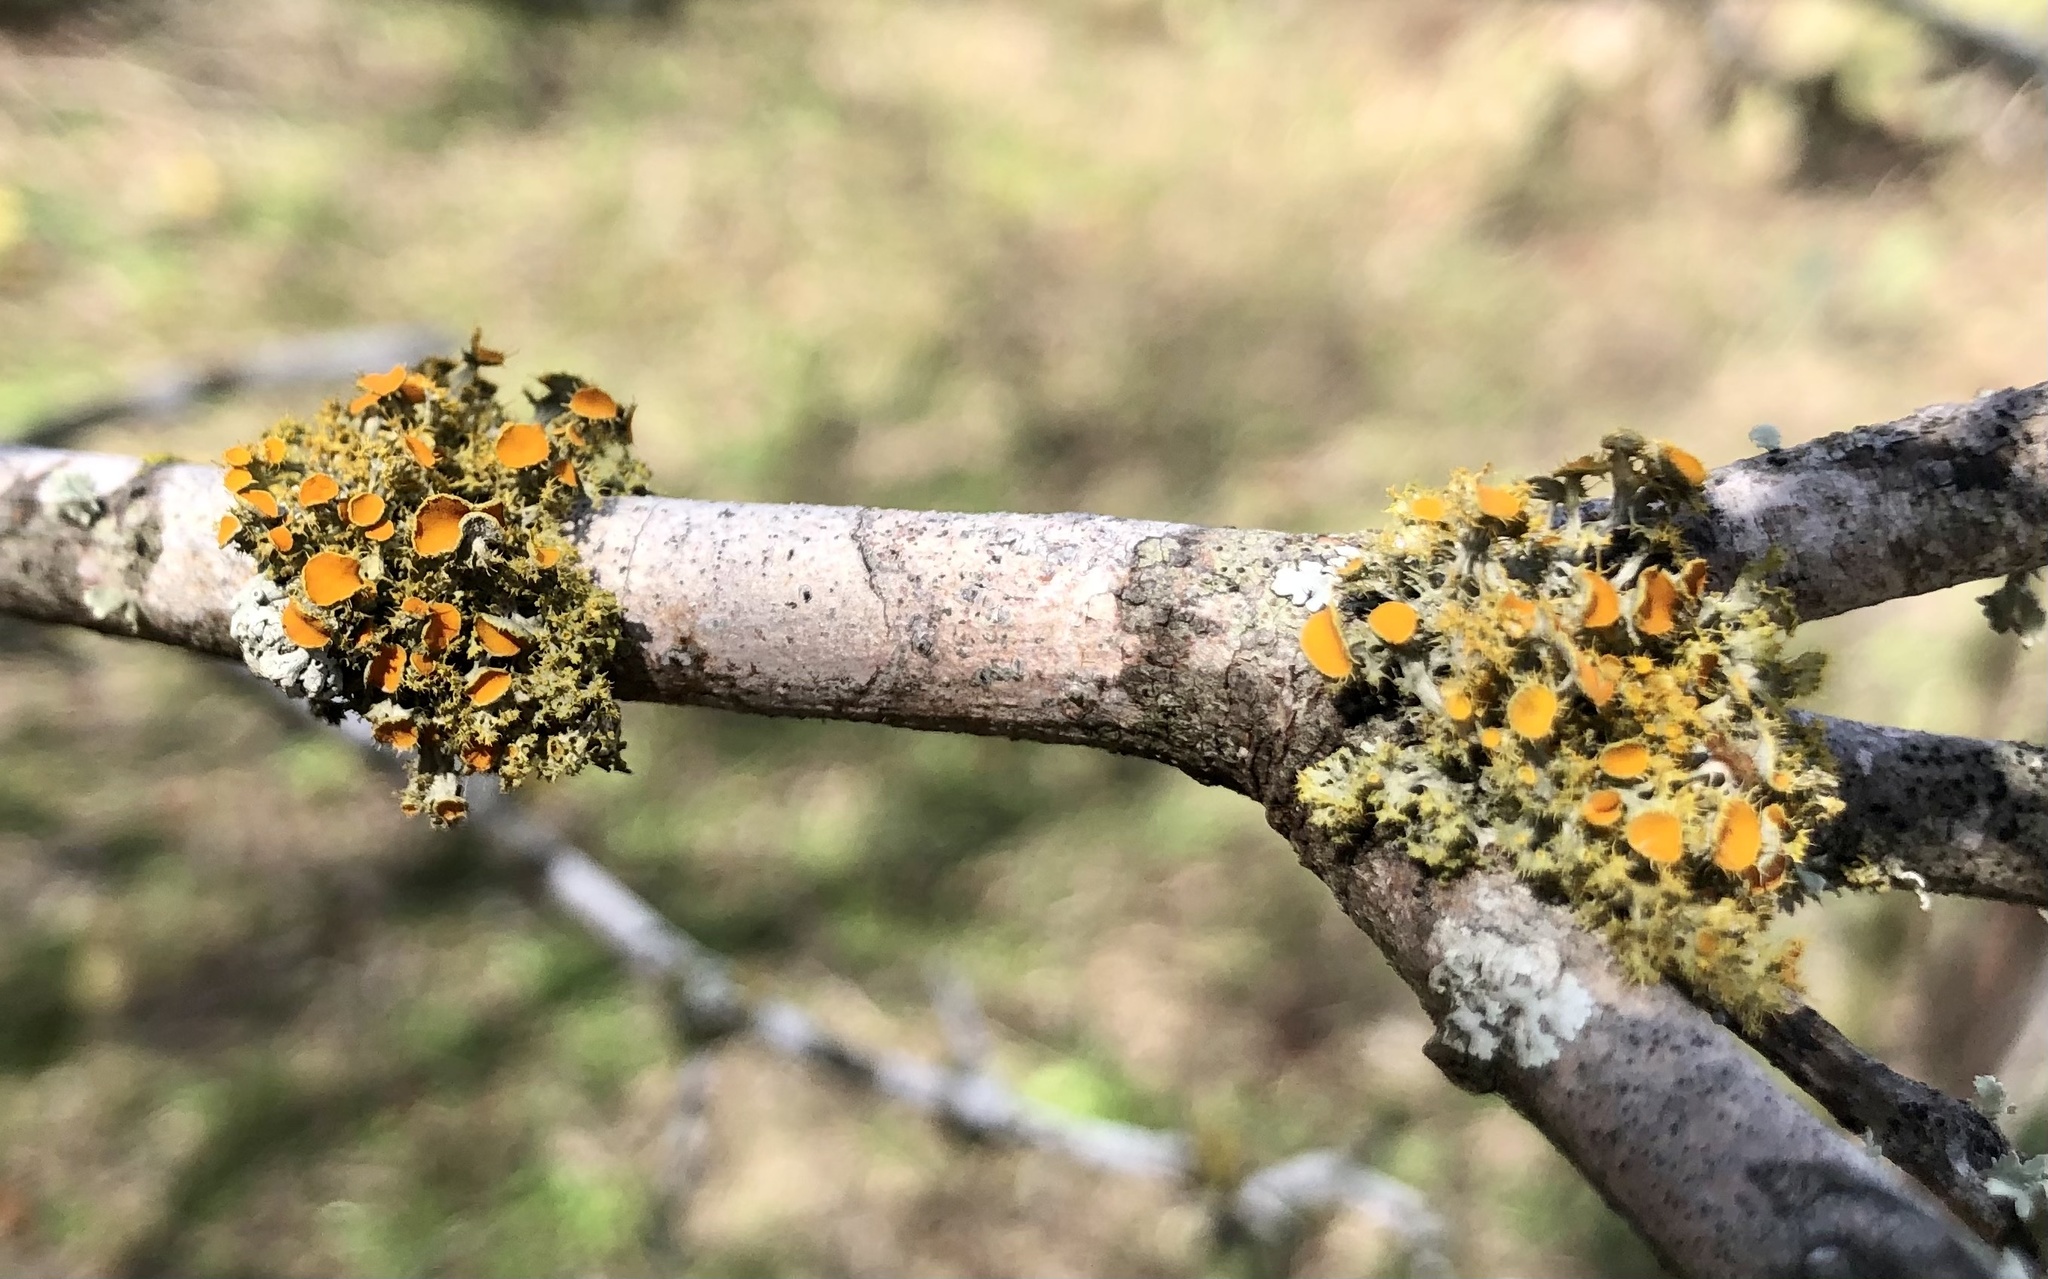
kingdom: Fungi
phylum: Ascomycota
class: Lecanoromycetes
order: Teloschistales
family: Teloschistaceae
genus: Niorma
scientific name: Niorma chrysophthalma
